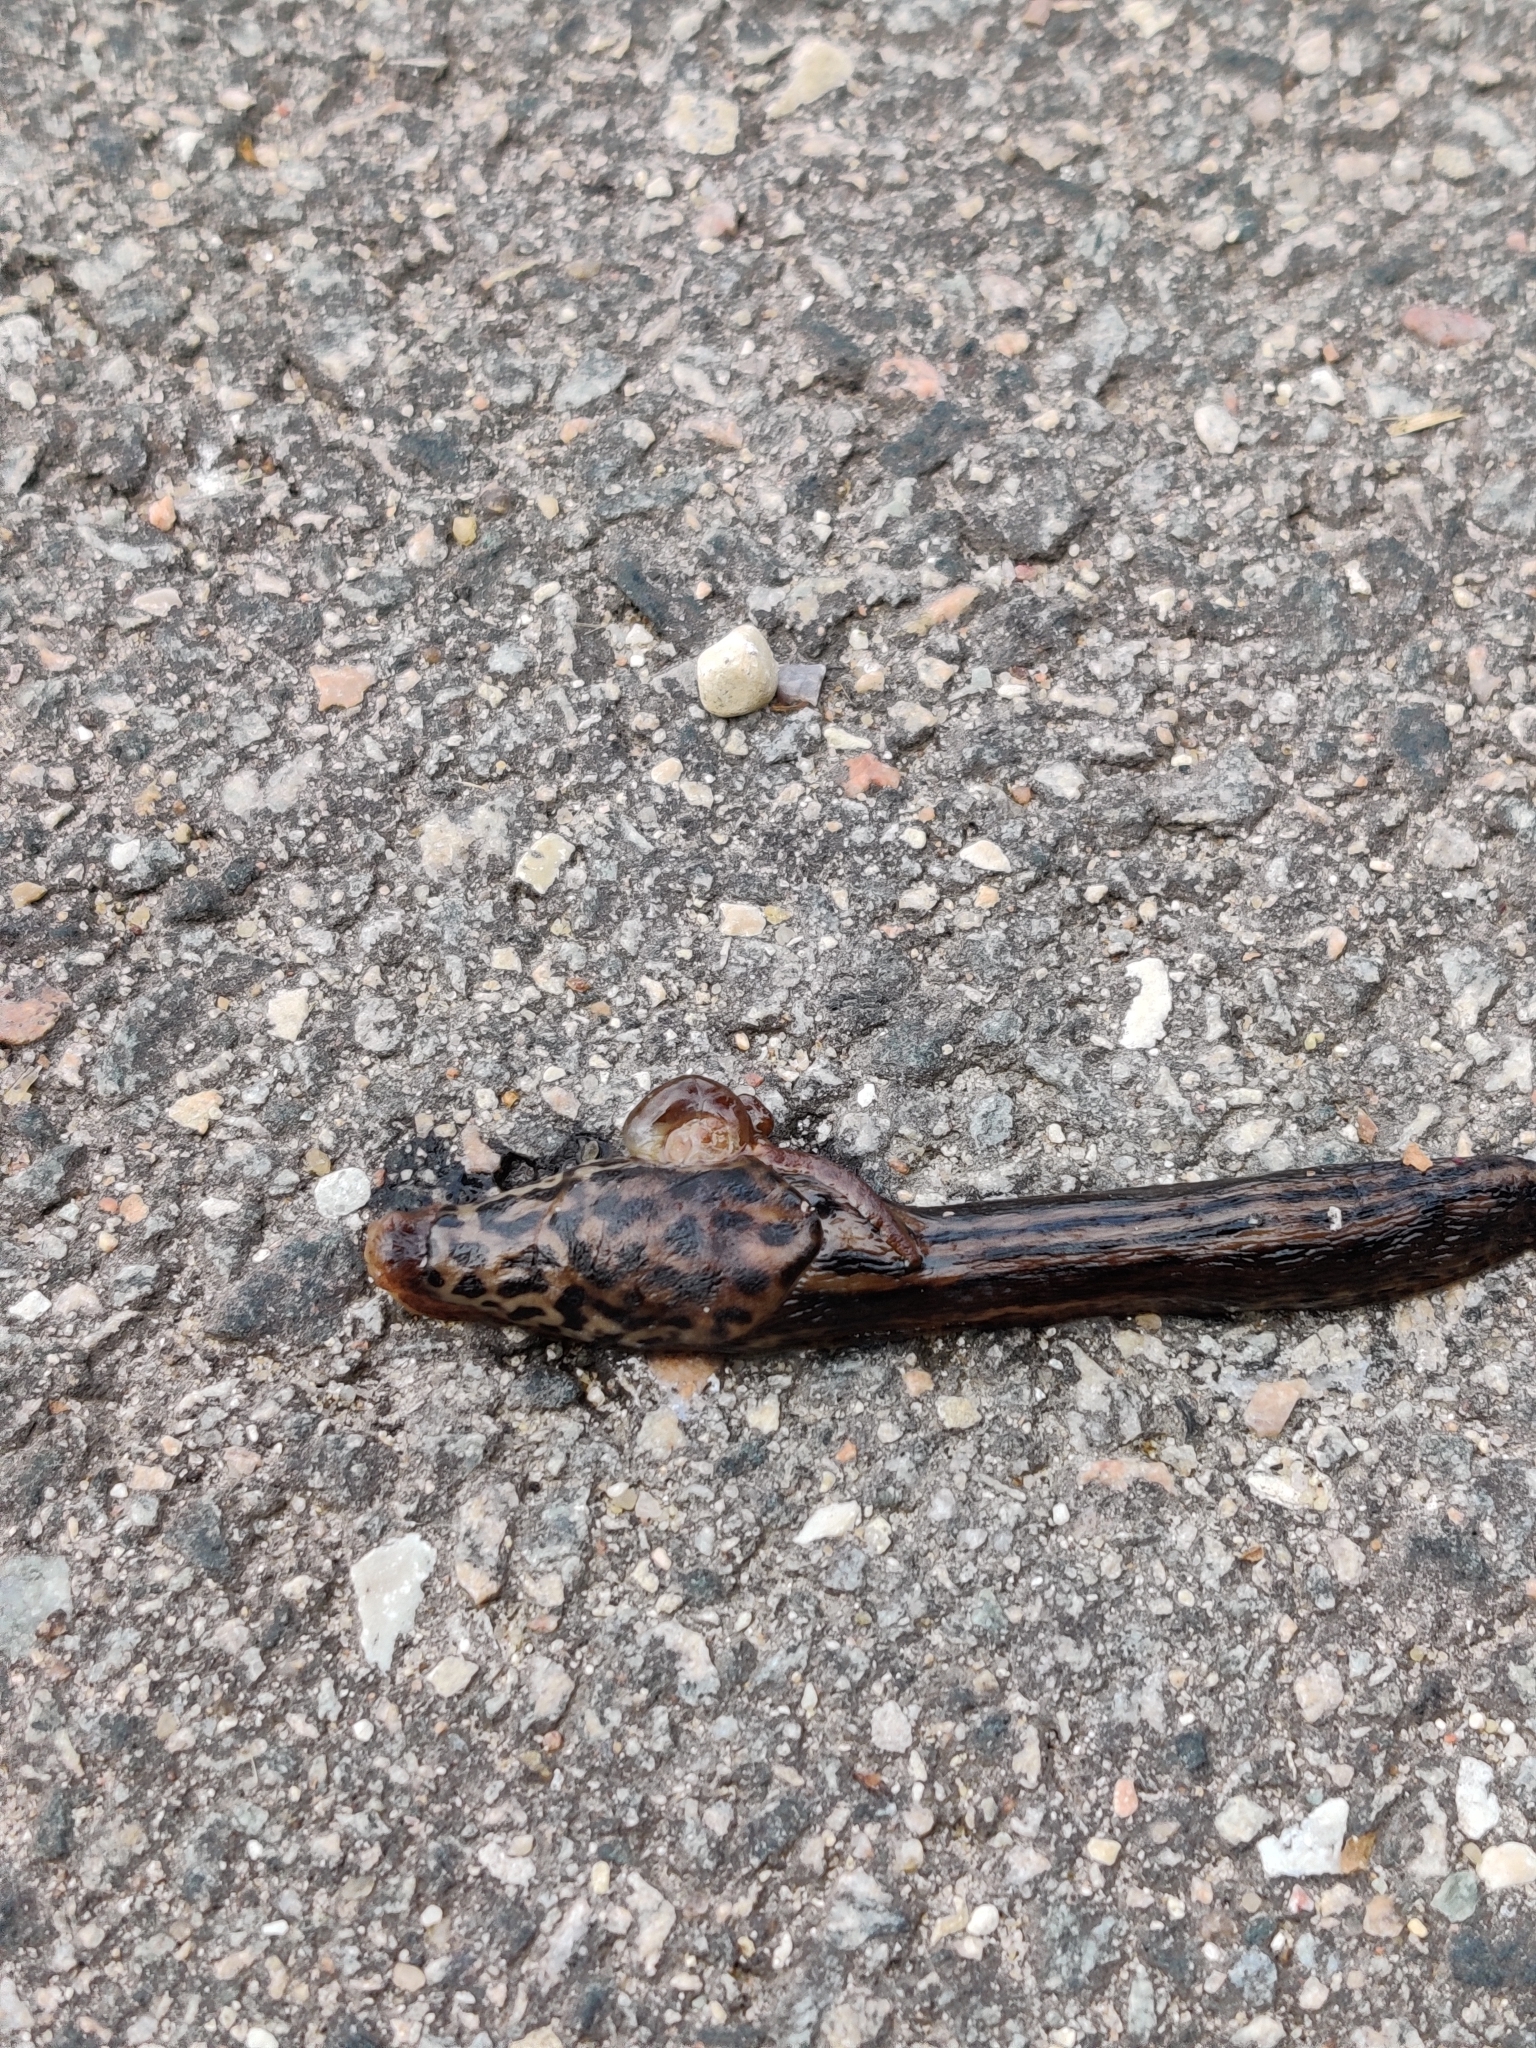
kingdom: Animalia
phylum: Mollusca
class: Gastropoda
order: Stylommatophora
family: Limacidae
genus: Limax
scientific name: Limax maximus
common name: Great grey slug
